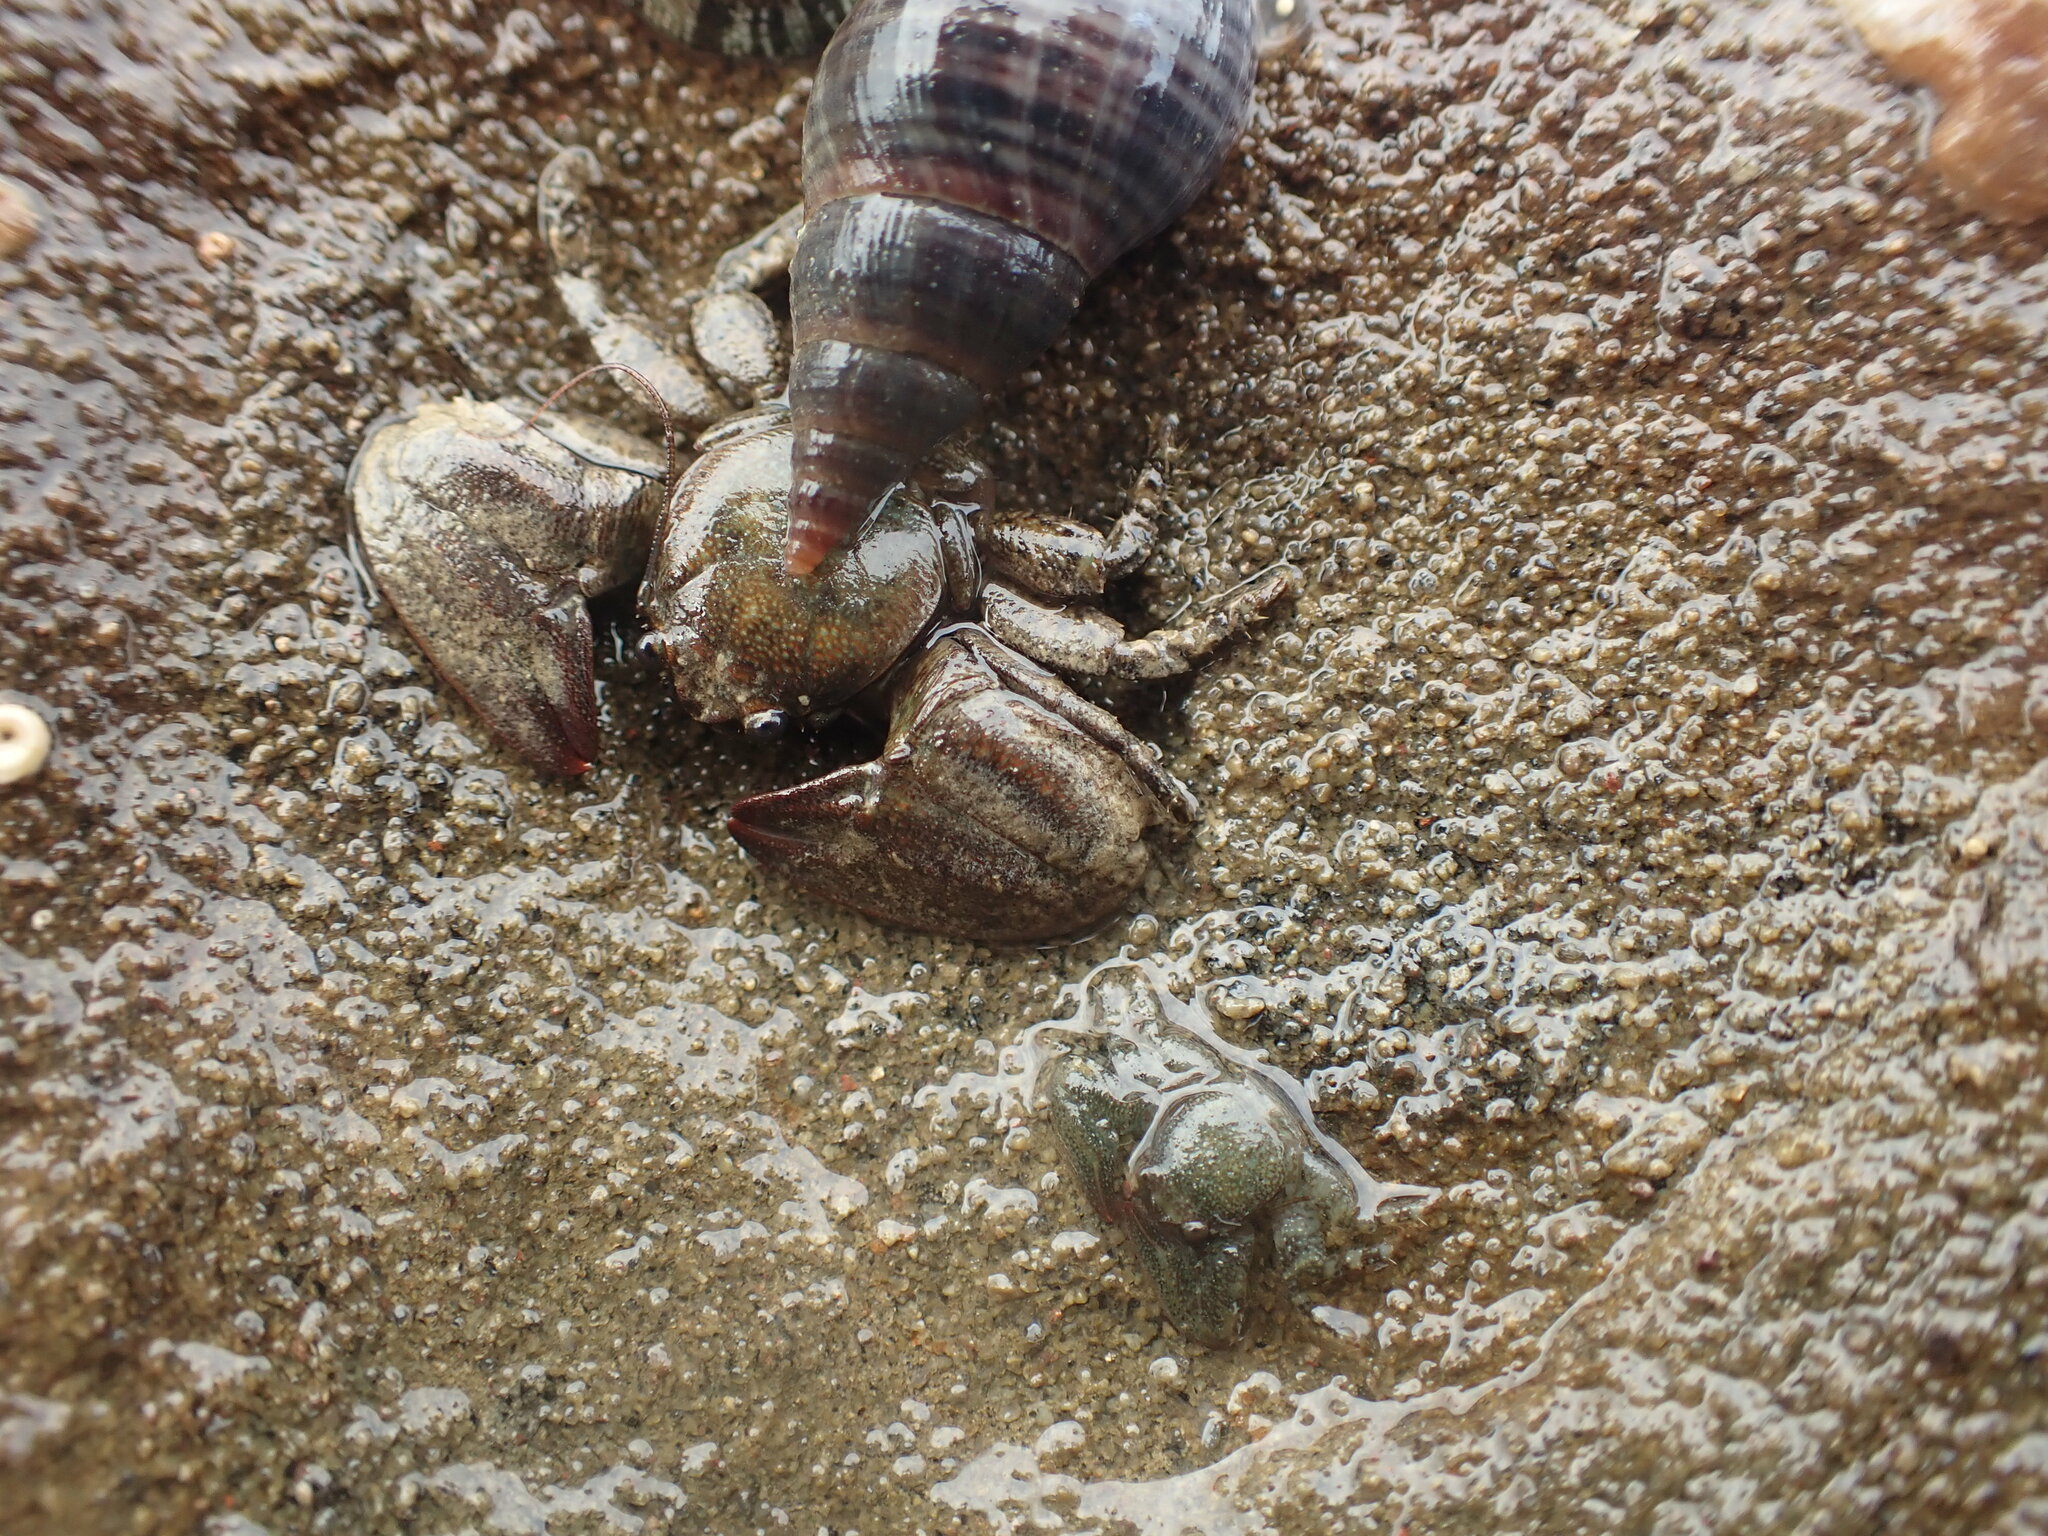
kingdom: Animalia
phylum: Arthropoda
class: Malacostraca
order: Decapoda
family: Porcellanidae
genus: Petrolisthes
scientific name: Petrolisthes elongatus
